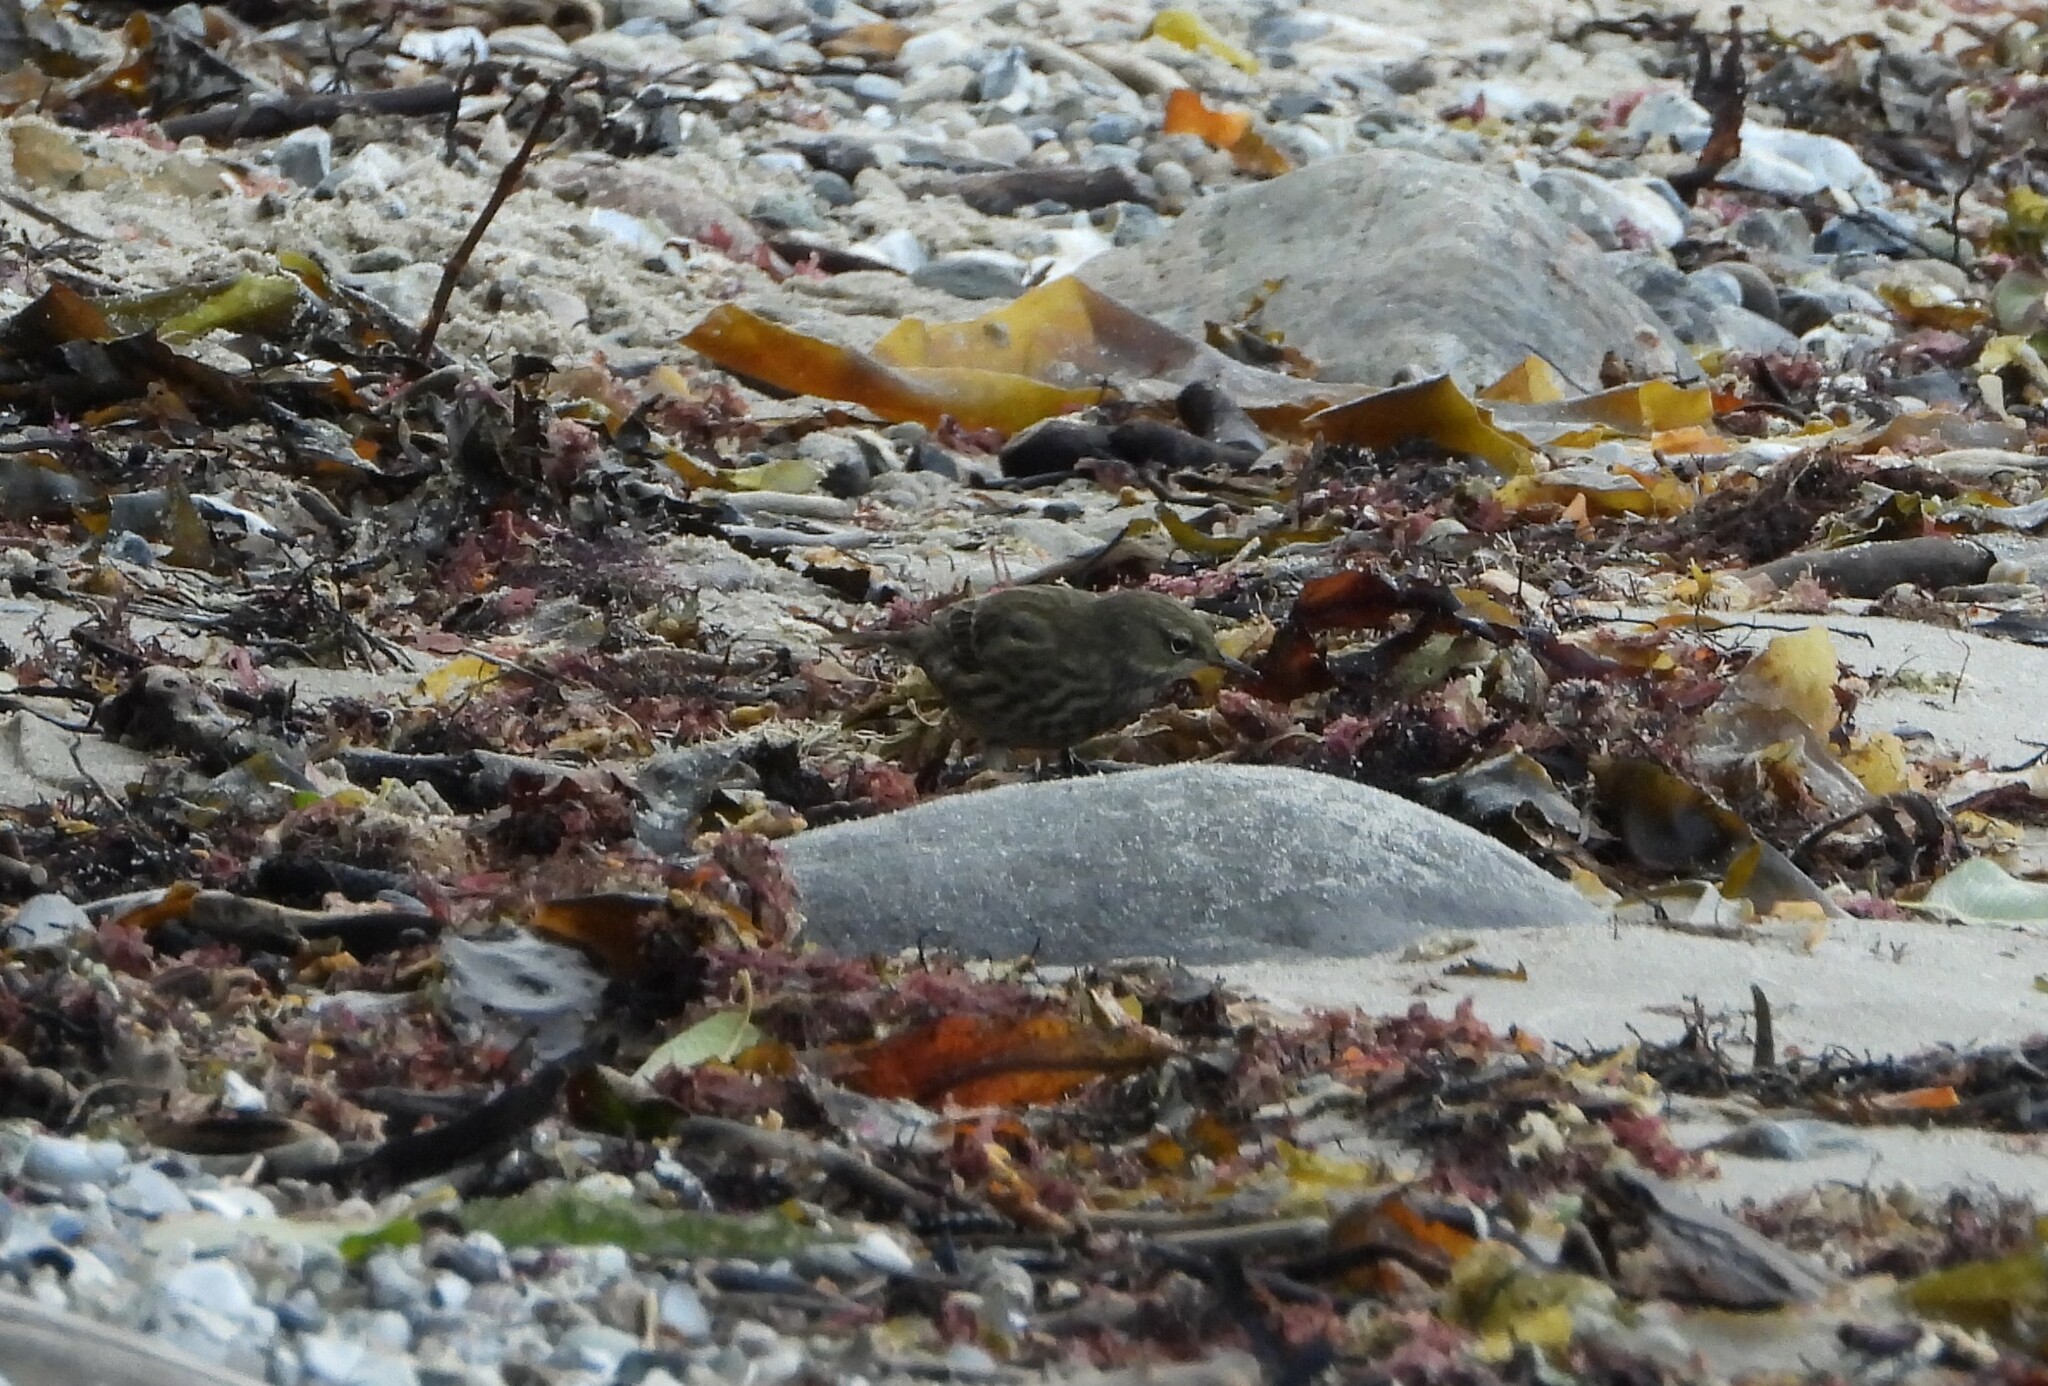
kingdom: Animalia
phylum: Chordata
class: Aves
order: Passeriformes
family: Motacillidae
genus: Anthus
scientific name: Anthus petrosus
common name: Eurasian rock pipit
